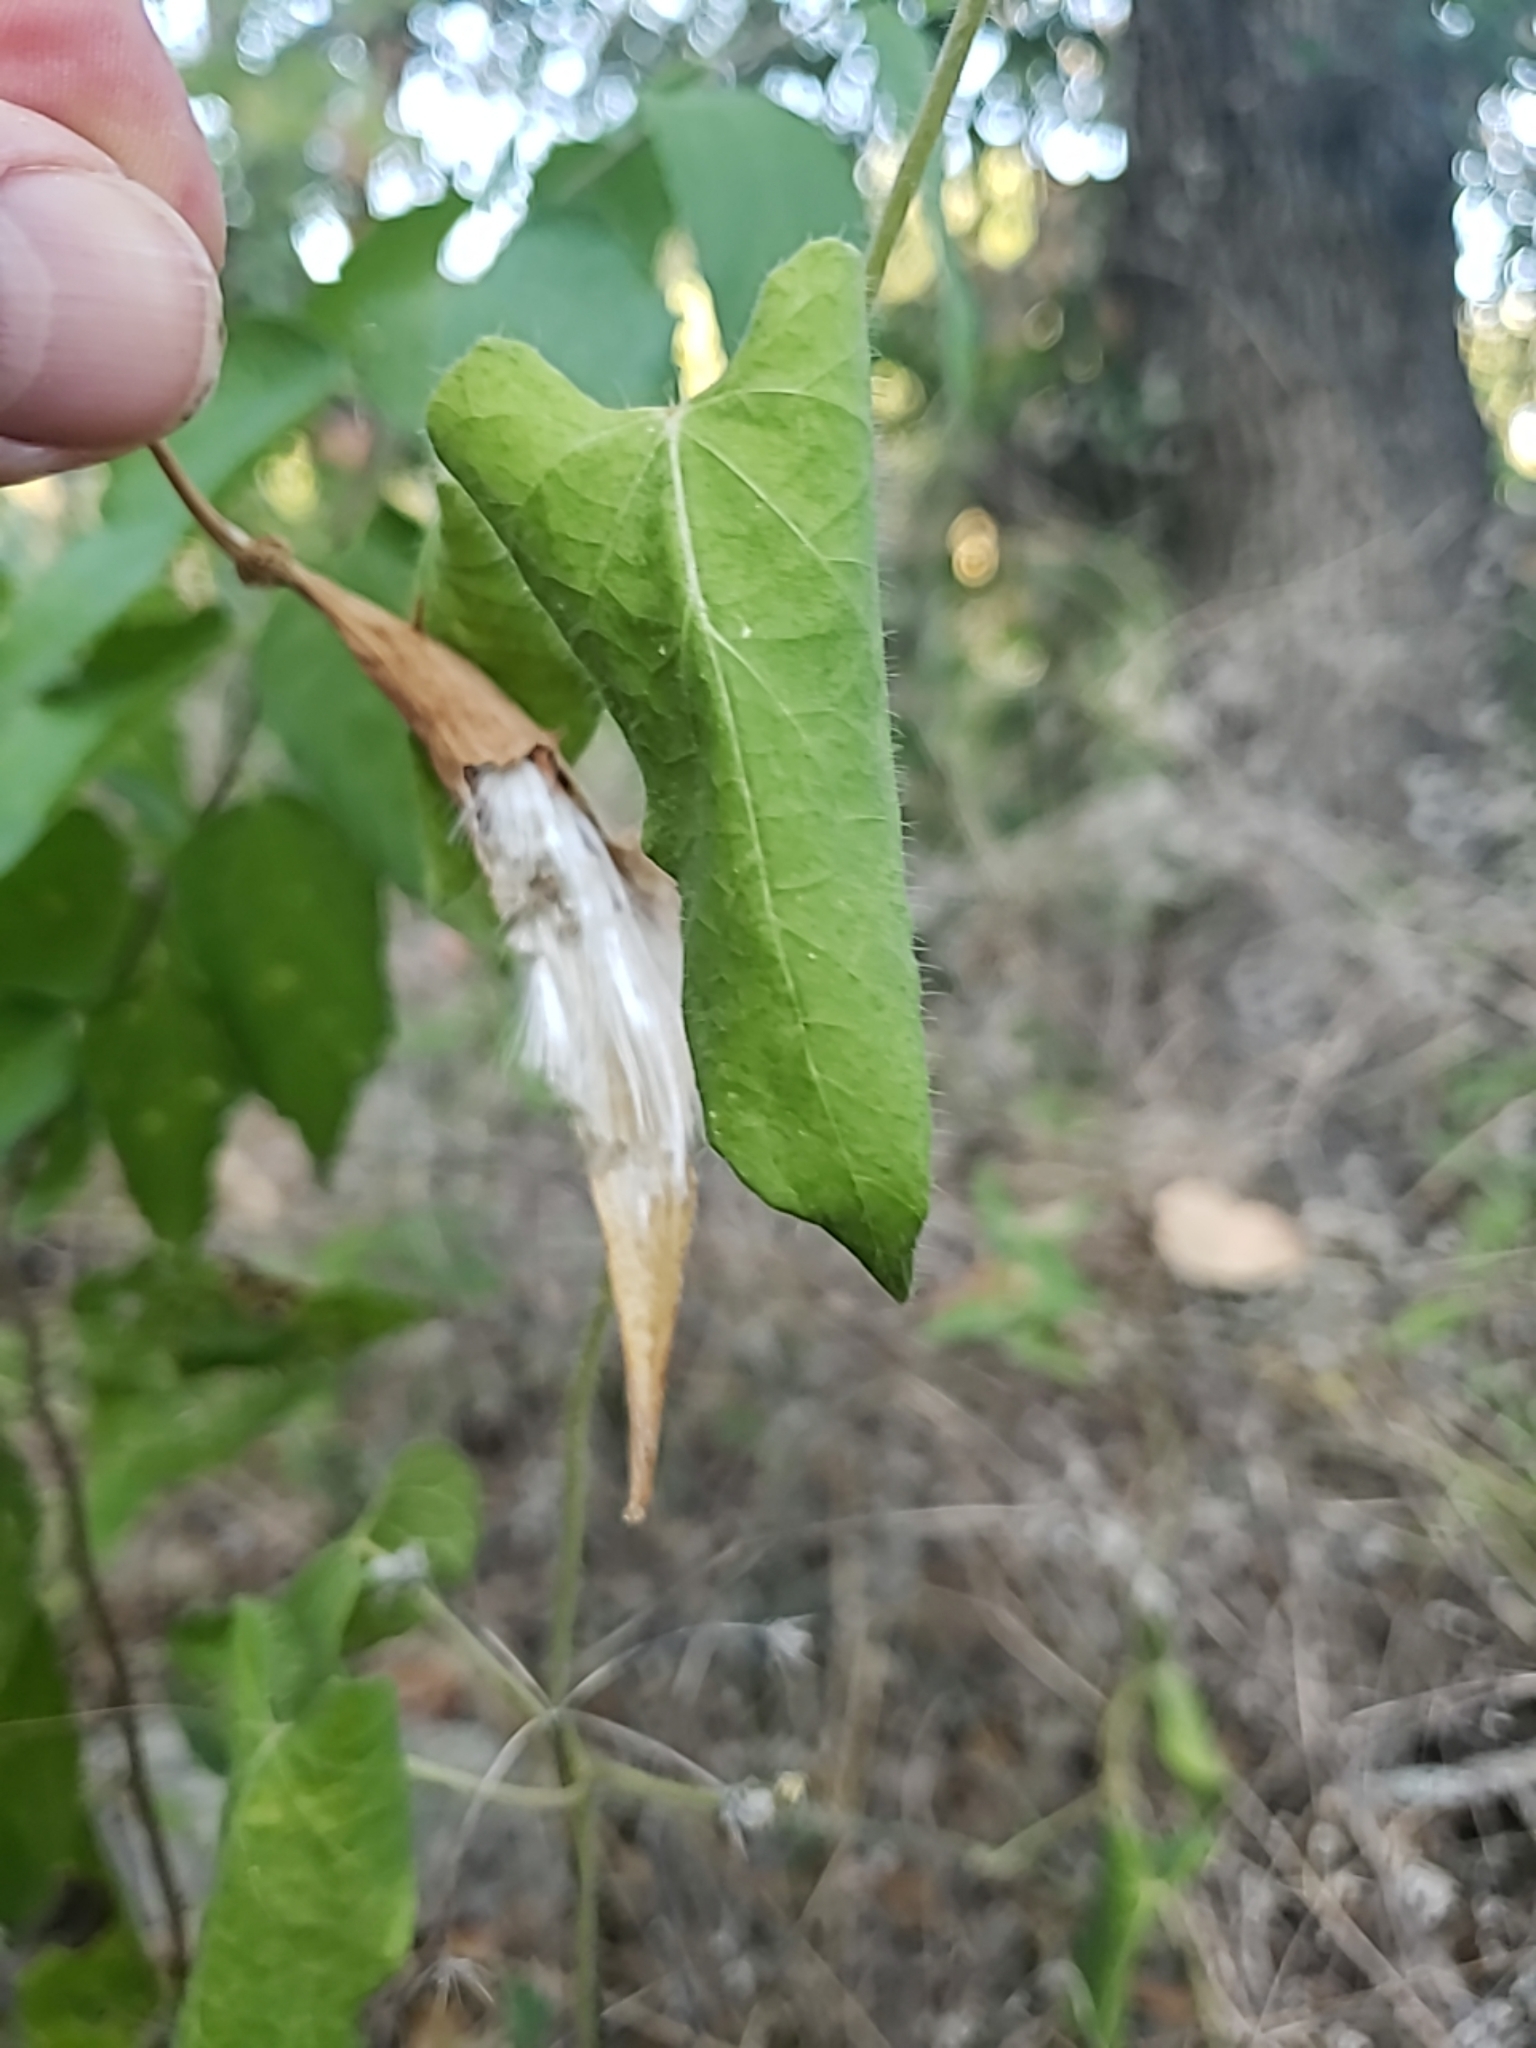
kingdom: Plantae
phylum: Tracheophyta
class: Magnoliopsida
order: Gentianales
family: Apocynaceae
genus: Dictyanthus
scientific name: Dictyanthus reticulatus
